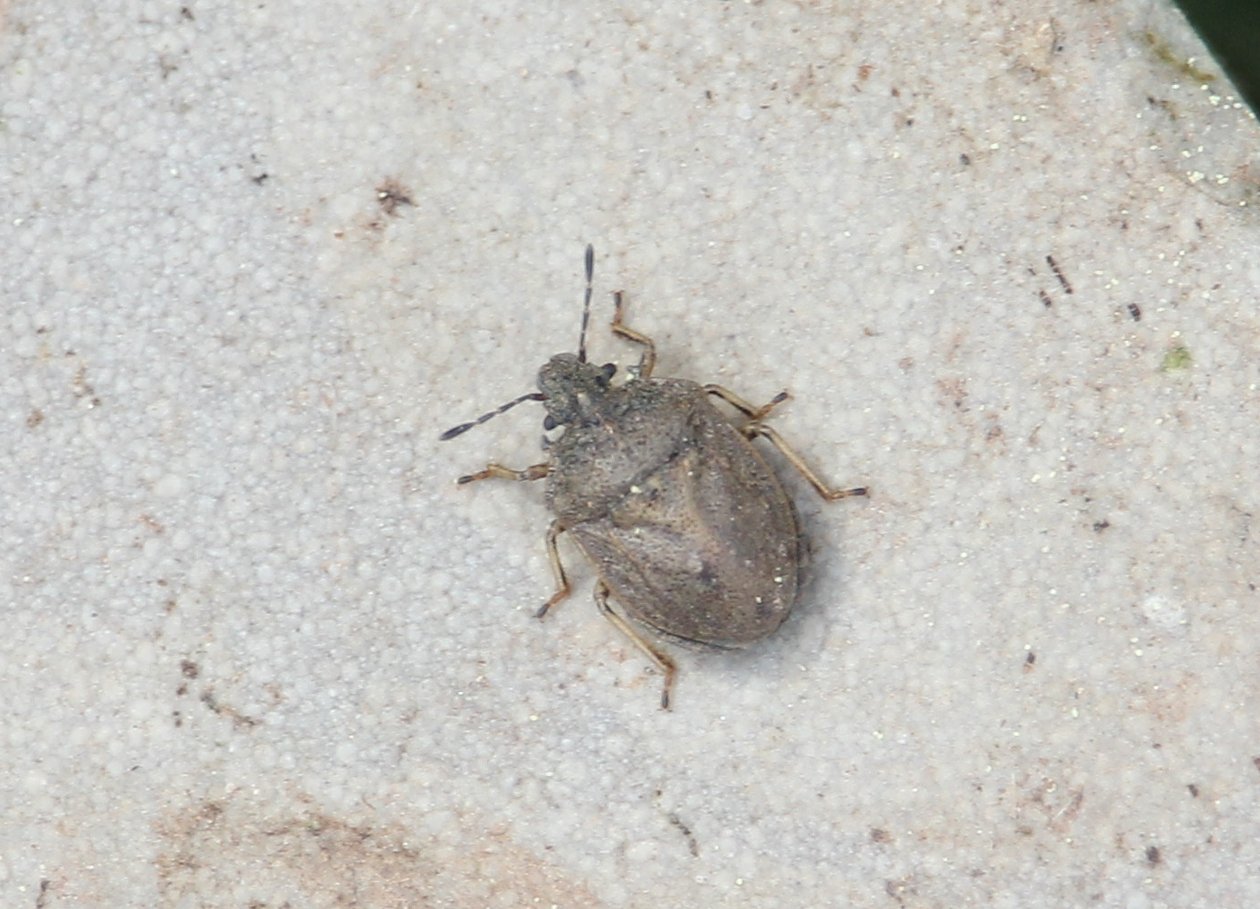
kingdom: Animalia
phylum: Arthropoda
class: Insecta
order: Hemiptera
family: Pentatomidae
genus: Podops
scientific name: Podops inunctus
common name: Turtle bug
